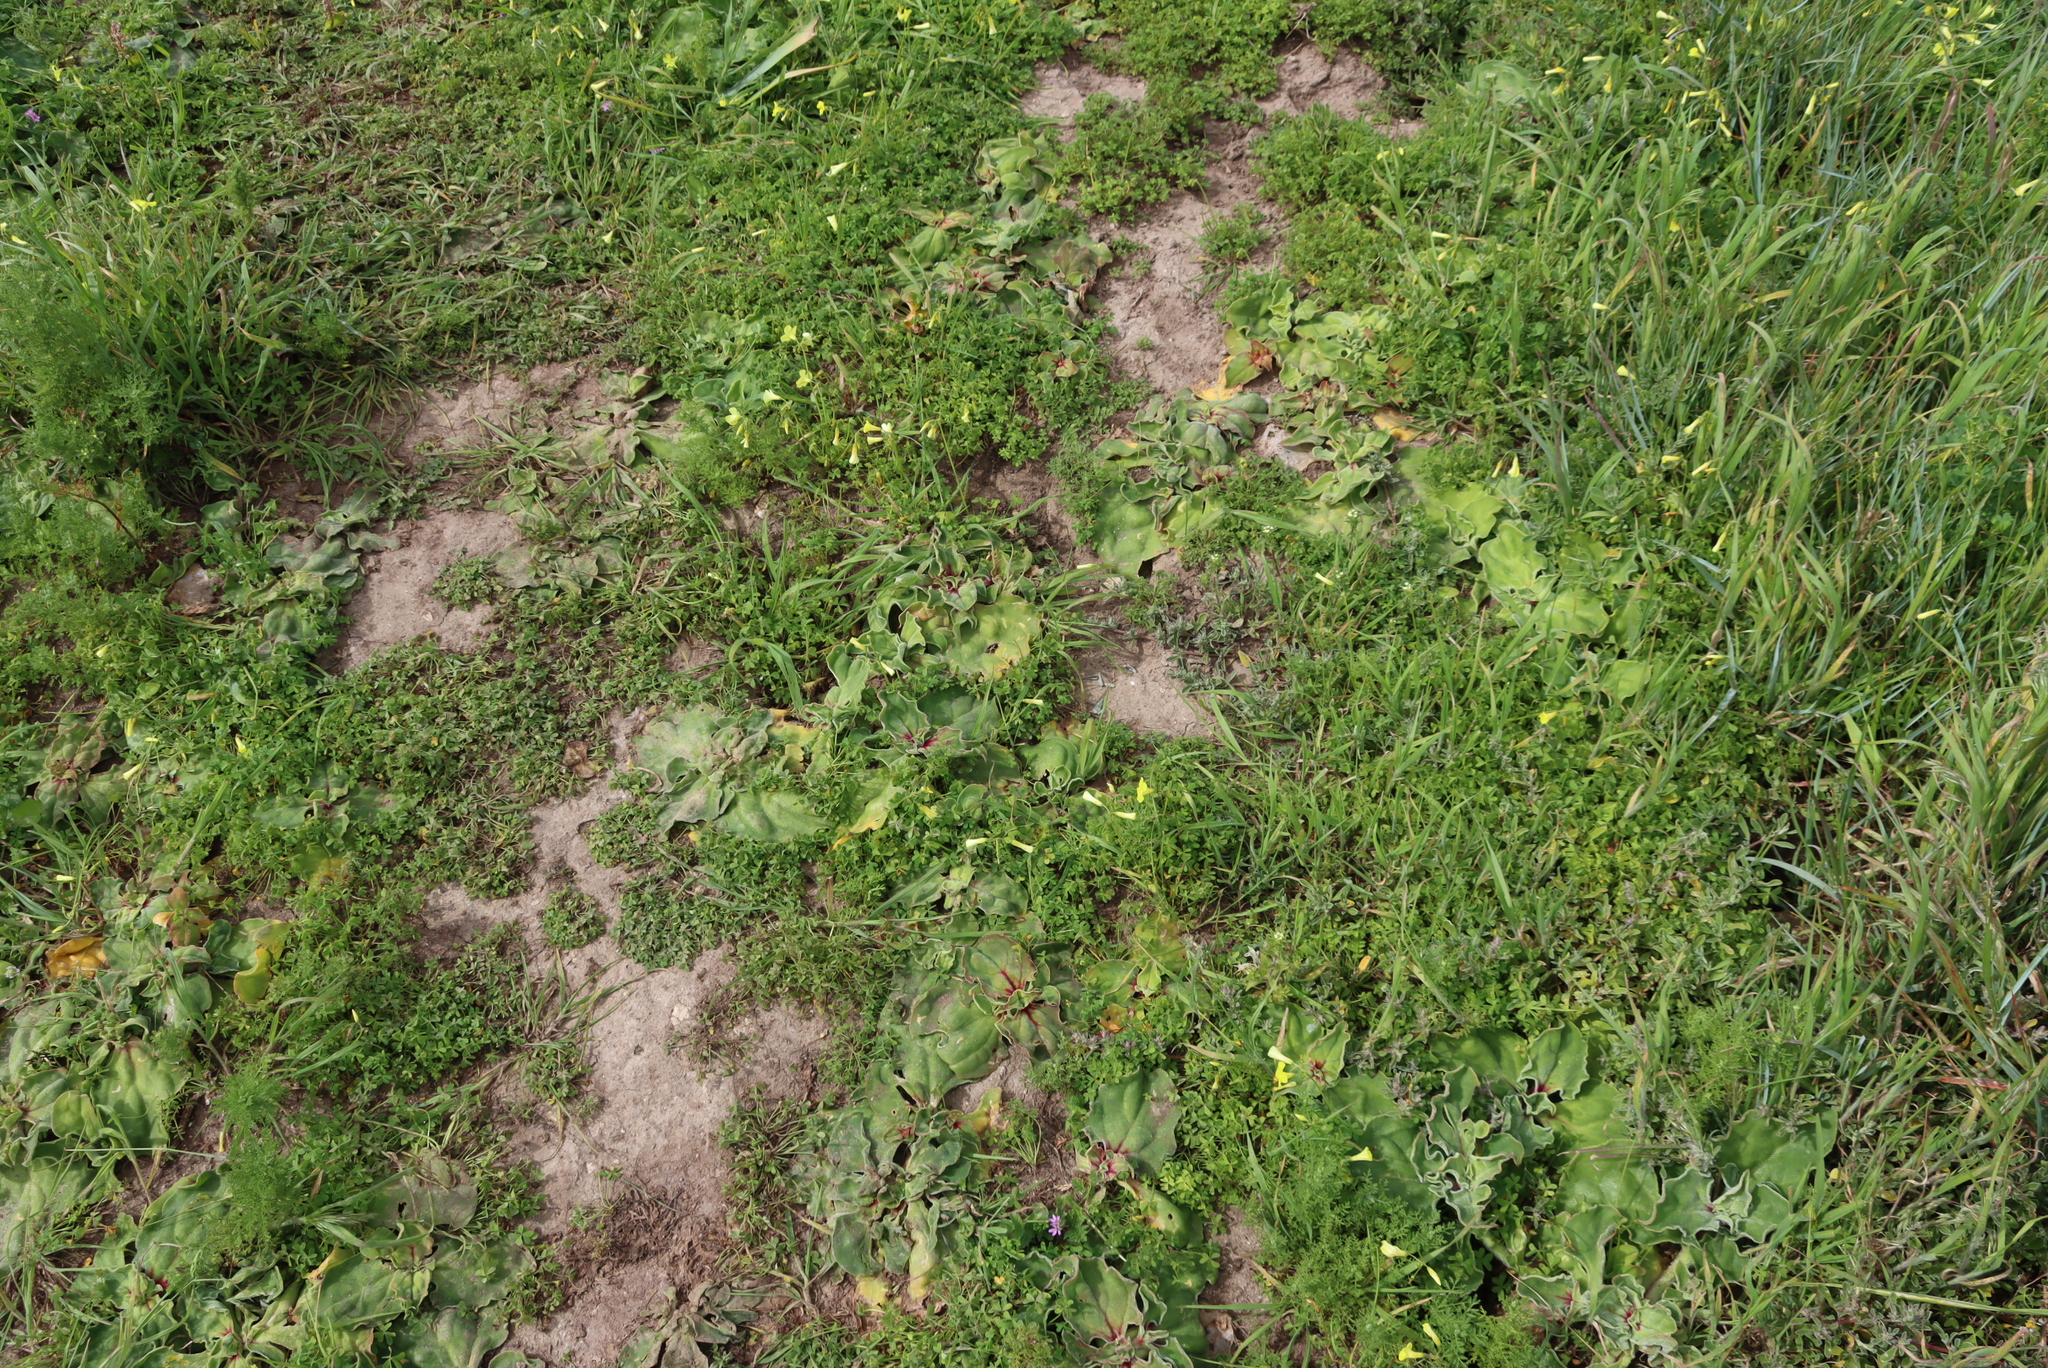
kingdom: Plantae
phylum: Tracheophyta
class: Magnoliopsida
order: Oxalidales
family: Oxalidaceae
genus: Oxalis
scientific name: Oxalis pes-caprae
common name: Bermuda-buttercup
